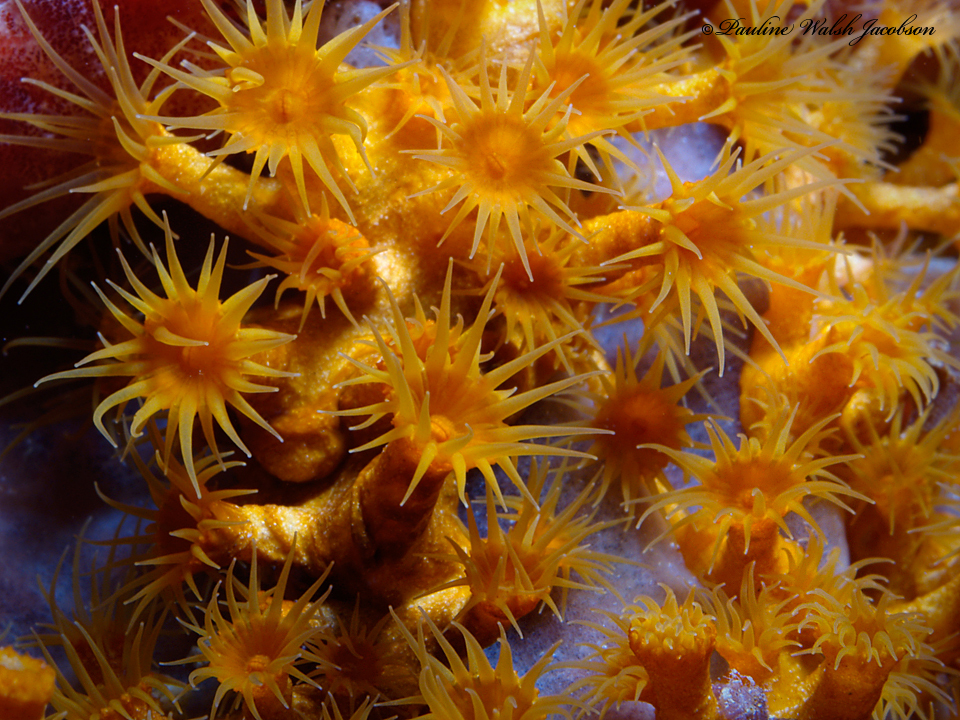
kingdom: Animalia
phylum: Cnidaria
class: Anthozoa
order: Zoantharia
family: Parazoanthidae
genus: Parazoanthus
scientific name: Parazoanthus swiftii
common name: Golden zoanthid
